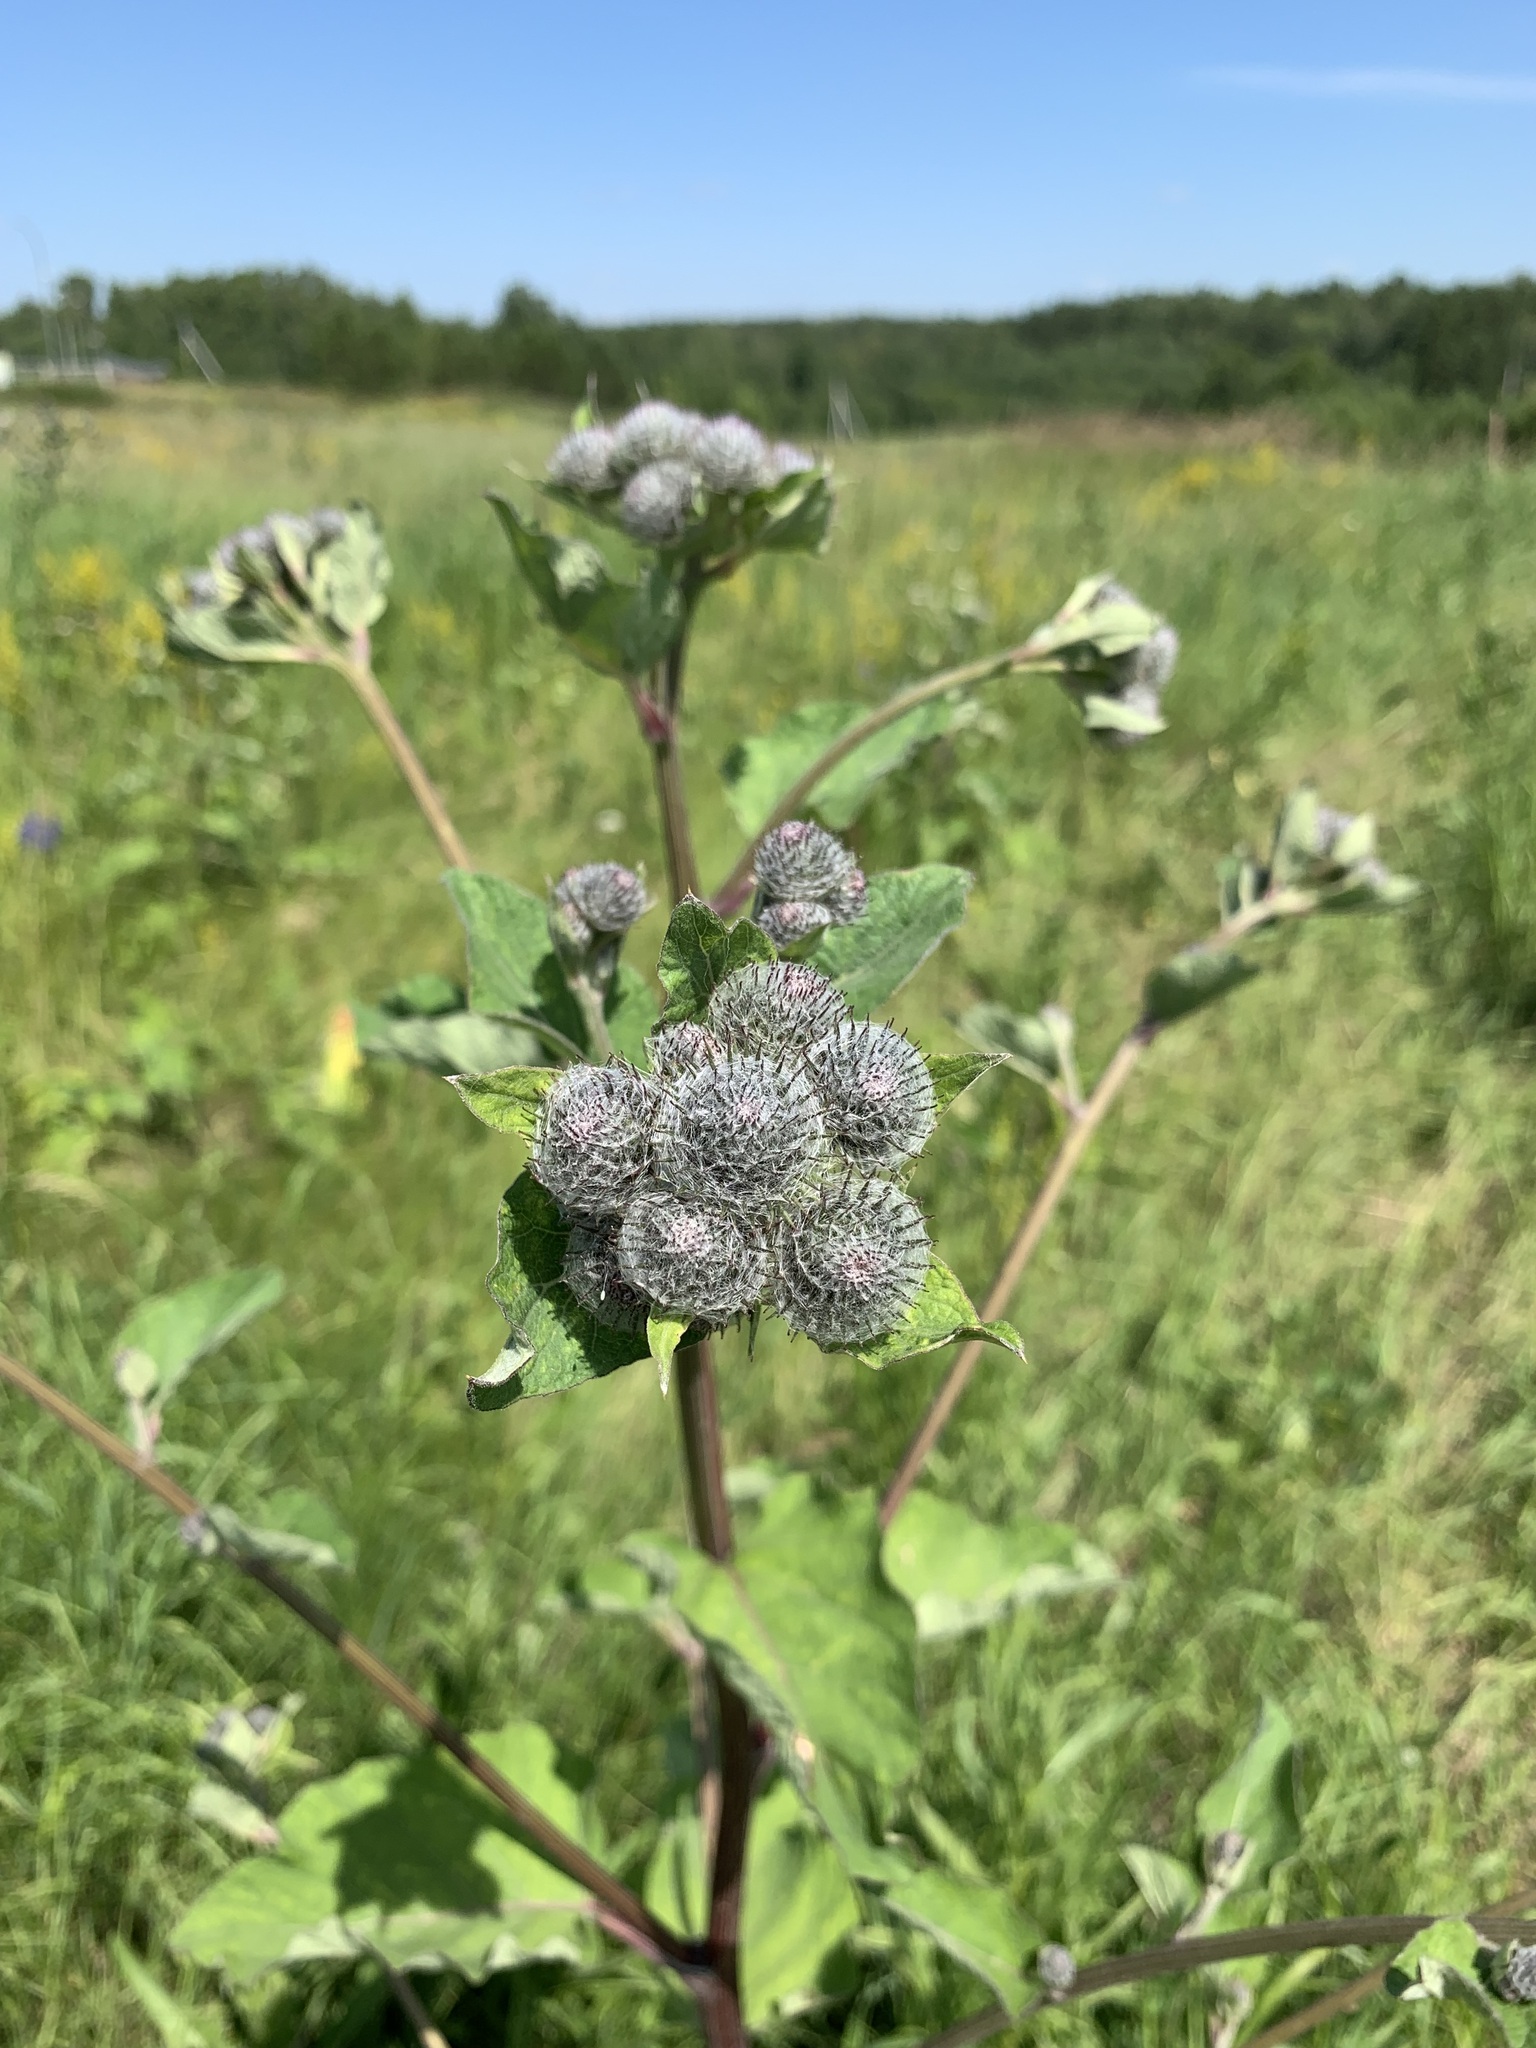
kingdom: Plantae
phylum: Tracheophyta
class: Magnoliopsida
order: Asterales
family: Asteraceae
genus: Arctium
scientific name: Arctium tomentosum
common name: Woolly burdock
